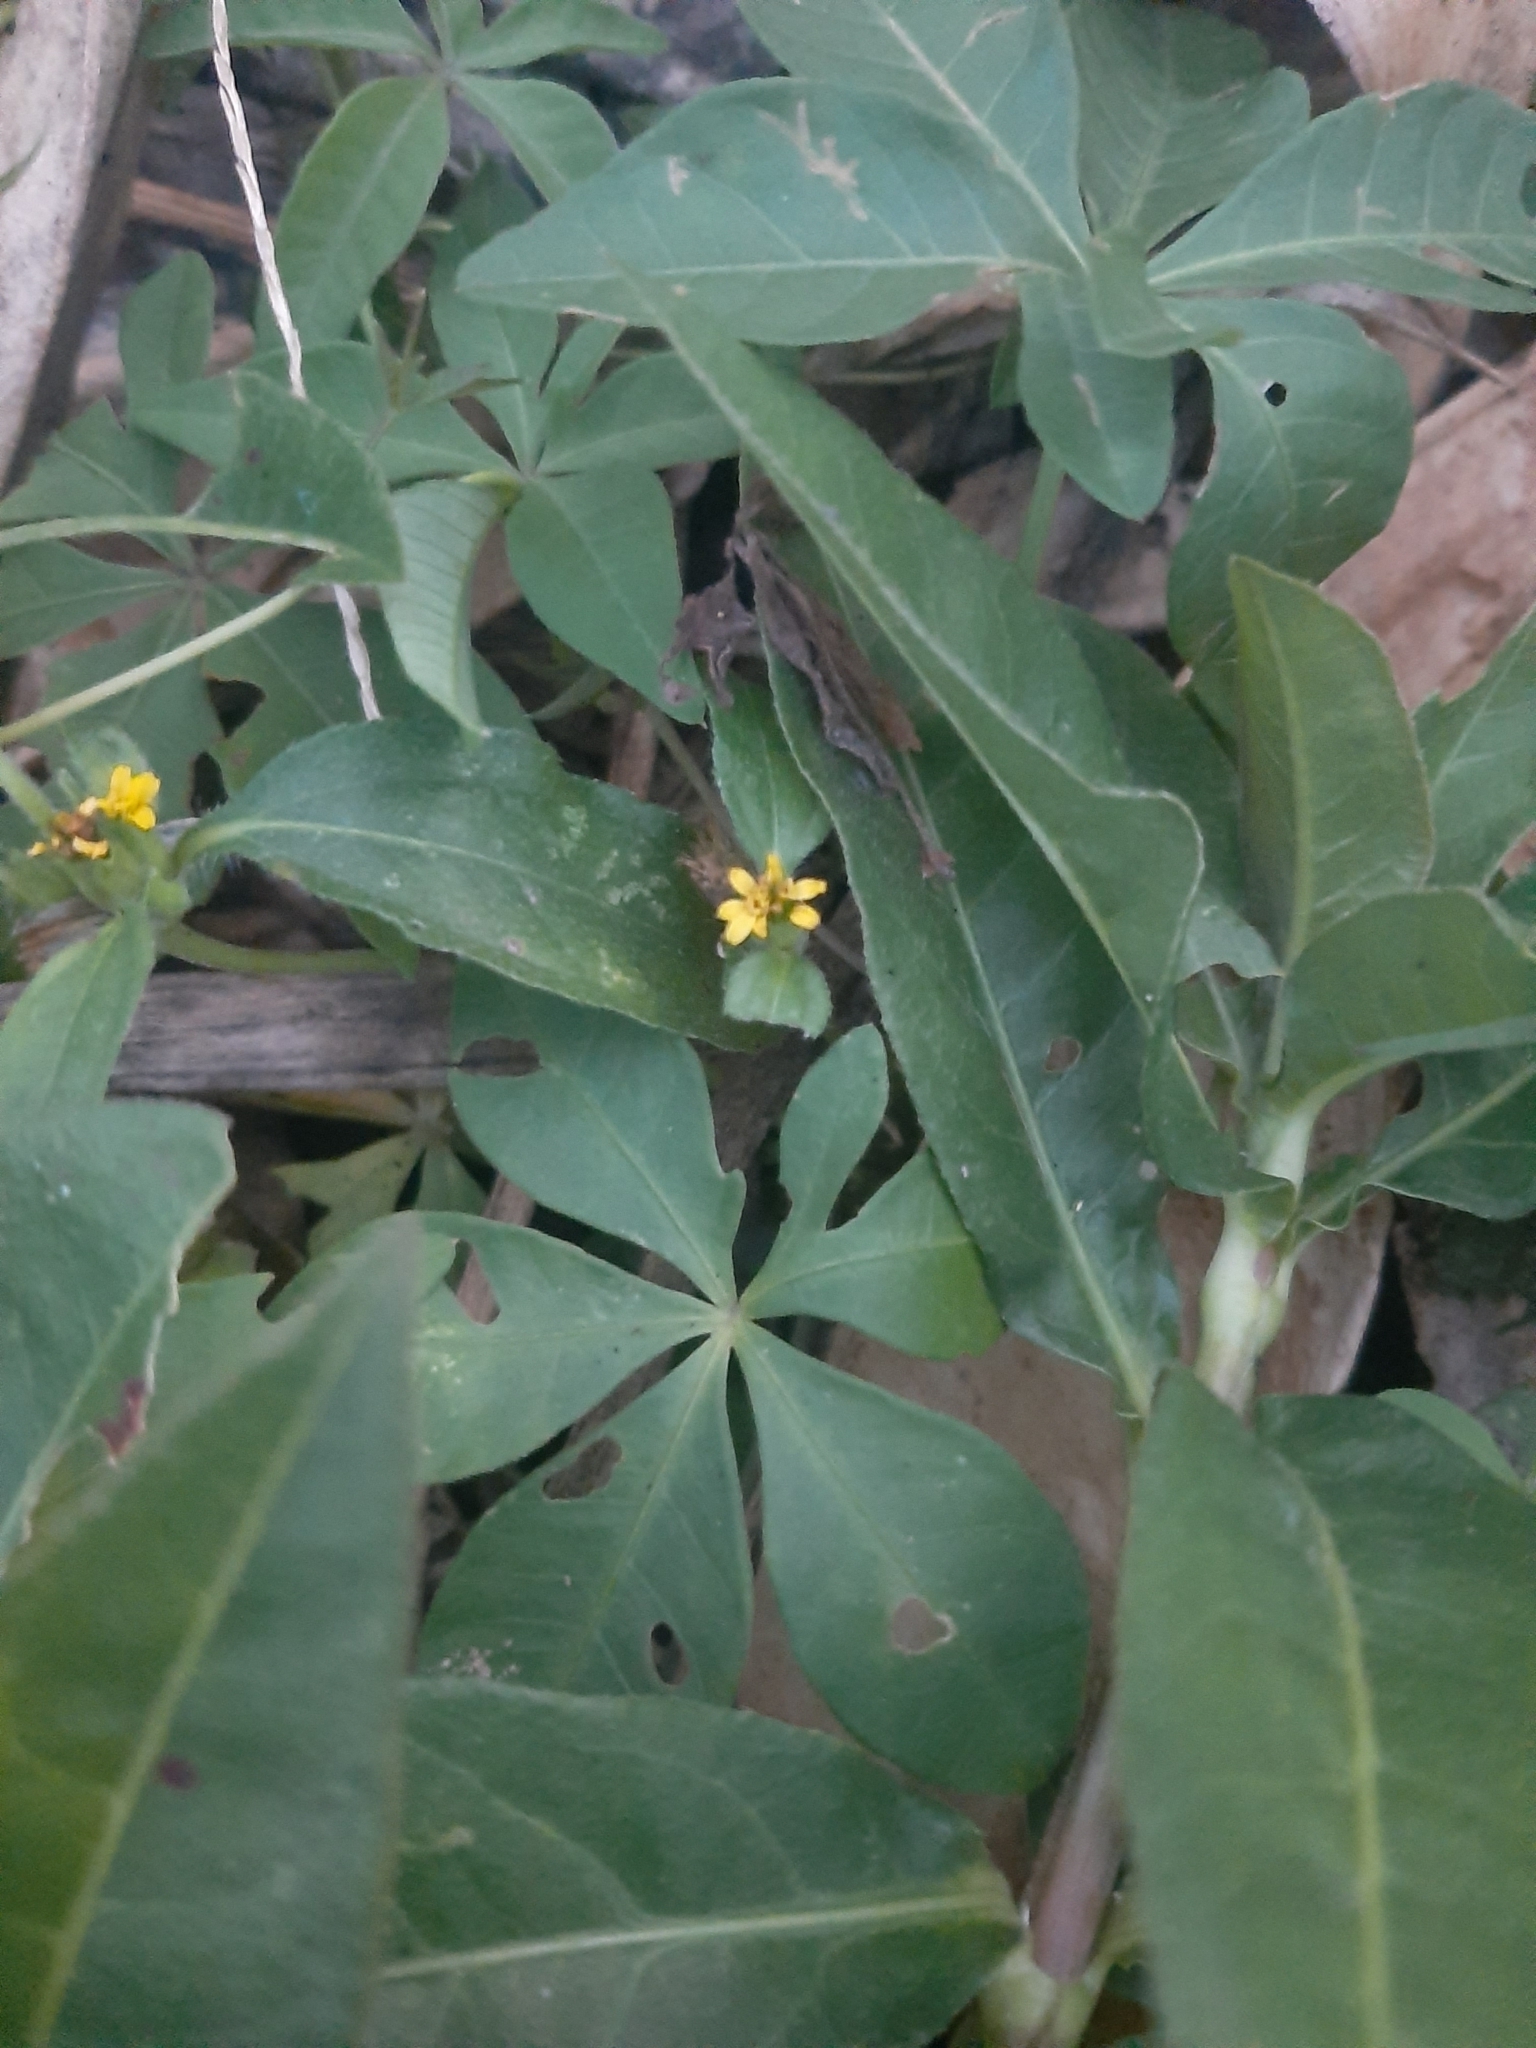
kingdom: Plantae
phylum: Tracheophyta
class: Magnoliopsida
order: Asterales
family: Asteraceae
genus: Calyptocarpus
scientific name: Calyptocarpus vialis
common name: Straggler daisy
